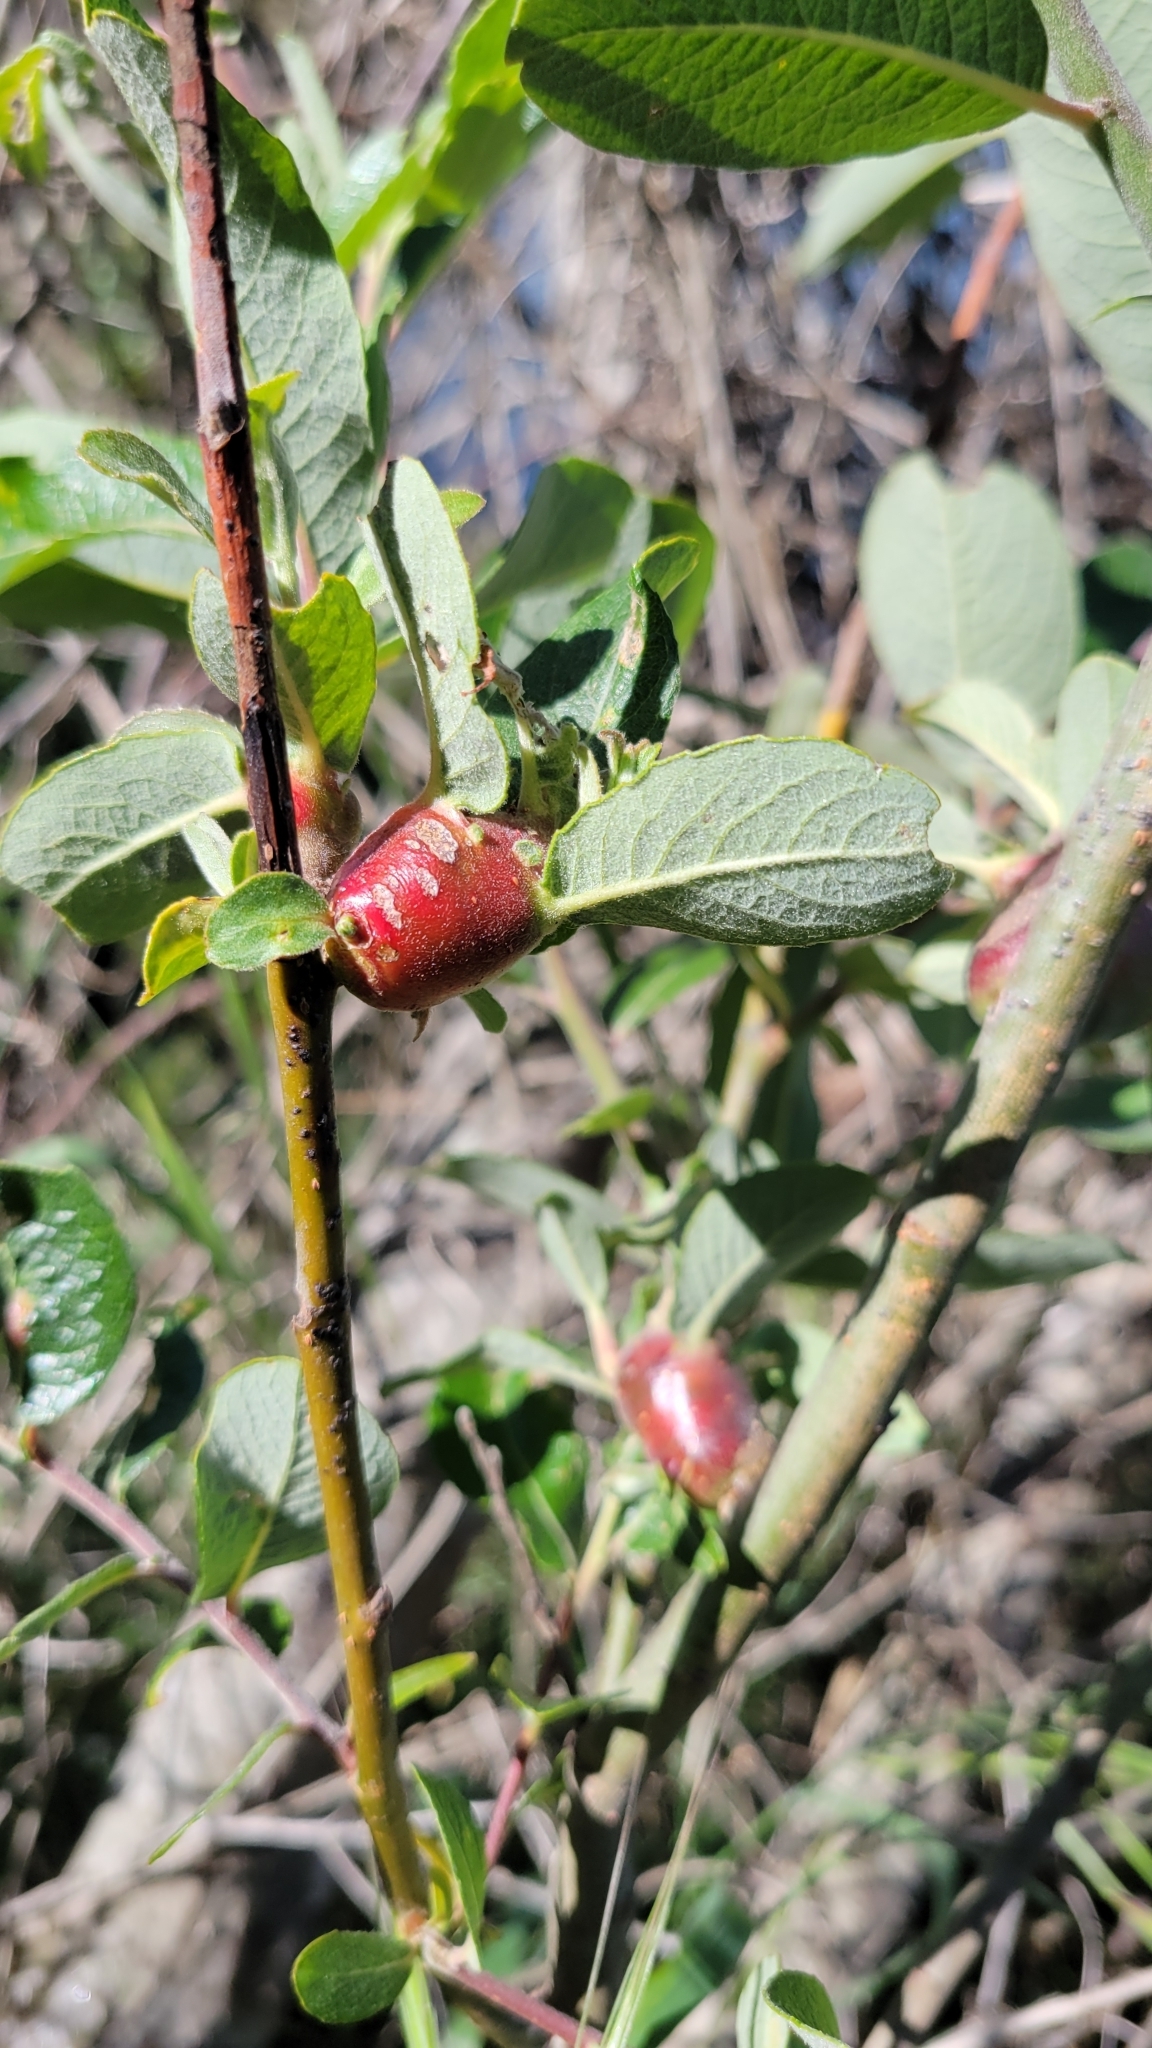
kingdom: Plantae
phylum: Tracheophyta
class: Magnoliopsida
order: Malpighiales
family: Salicaceae
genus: Salix
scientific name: Salix lasiolepis
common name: Arroyo willow
